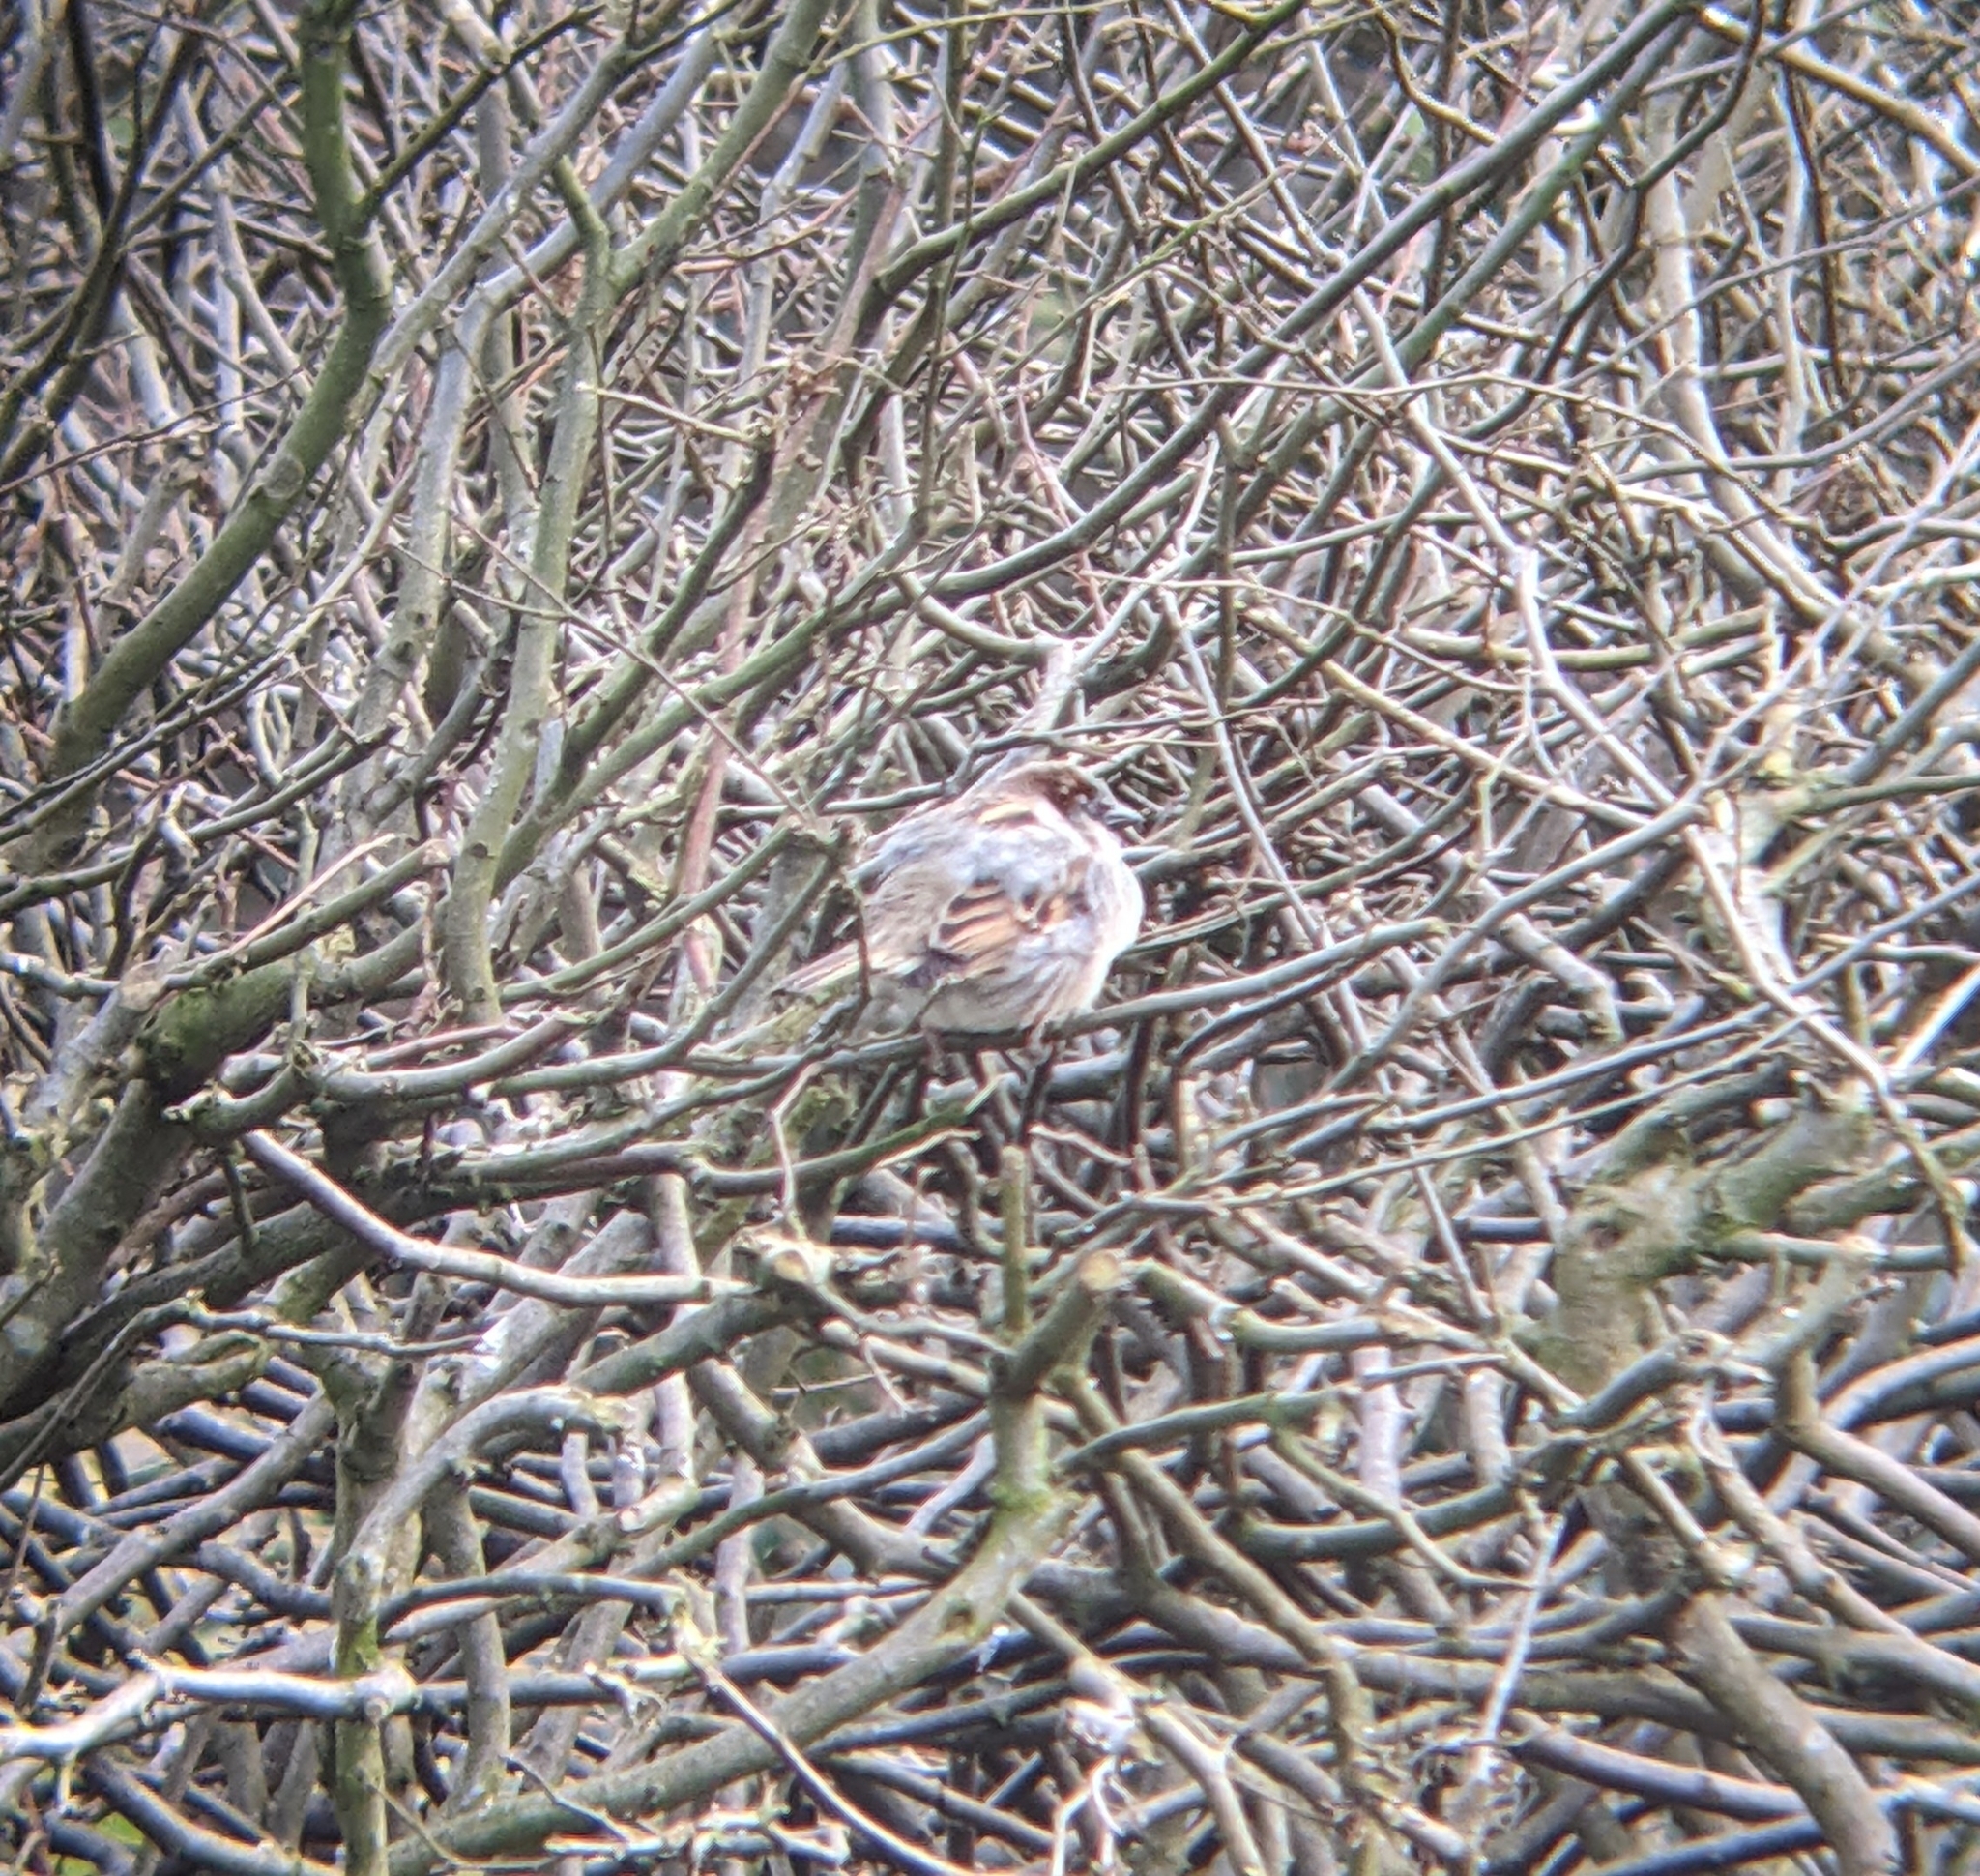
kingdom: Animalia
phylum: Chordata
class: Aves
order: Passeriformes
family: Passeridae
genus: Passer
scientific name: Passer domesticus
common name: House sparrow
